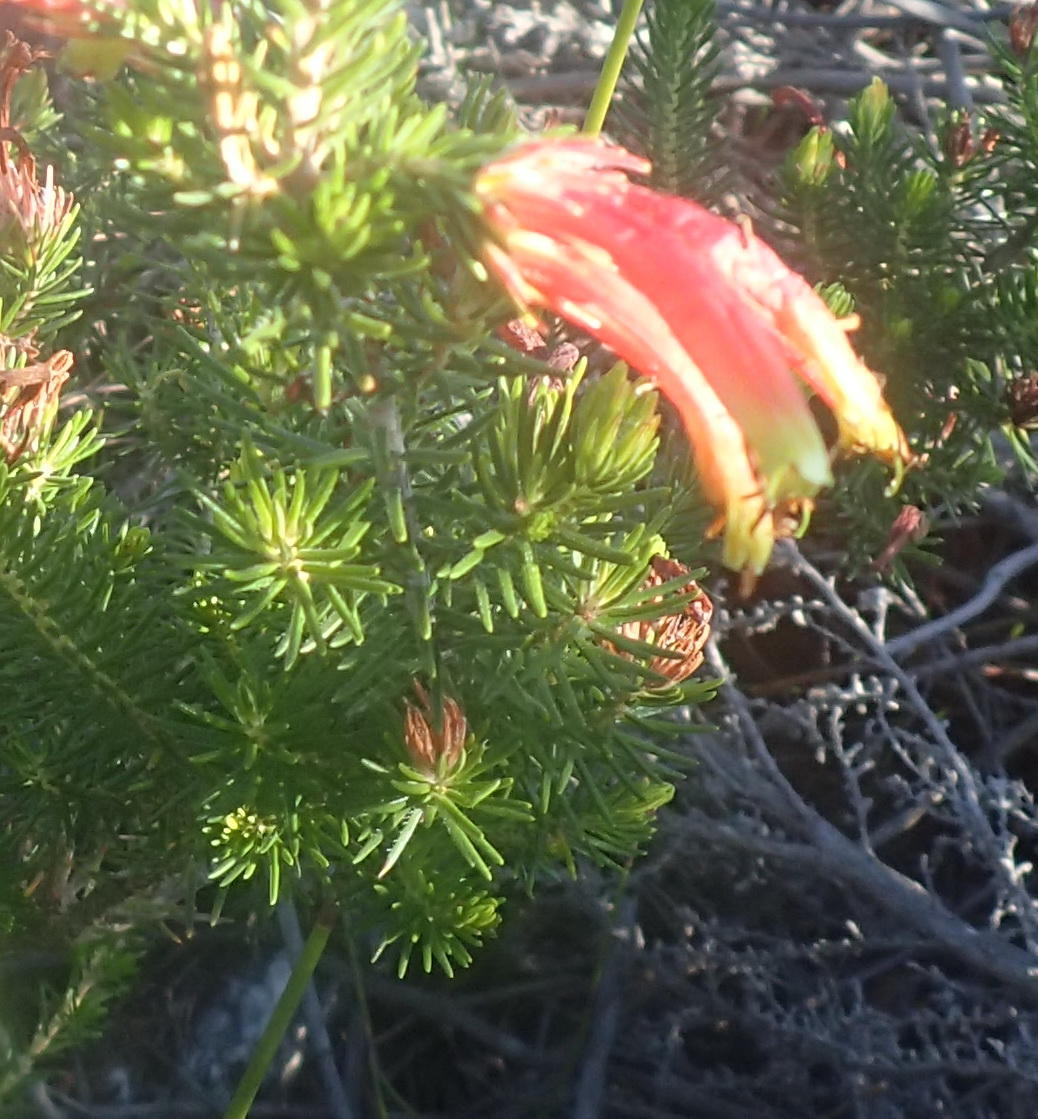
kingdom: Plantae
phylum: Tracheophyta
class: Magnoliopsida
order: Ericales
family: Ericaceae
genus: Erica
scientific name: Erica unicolor
